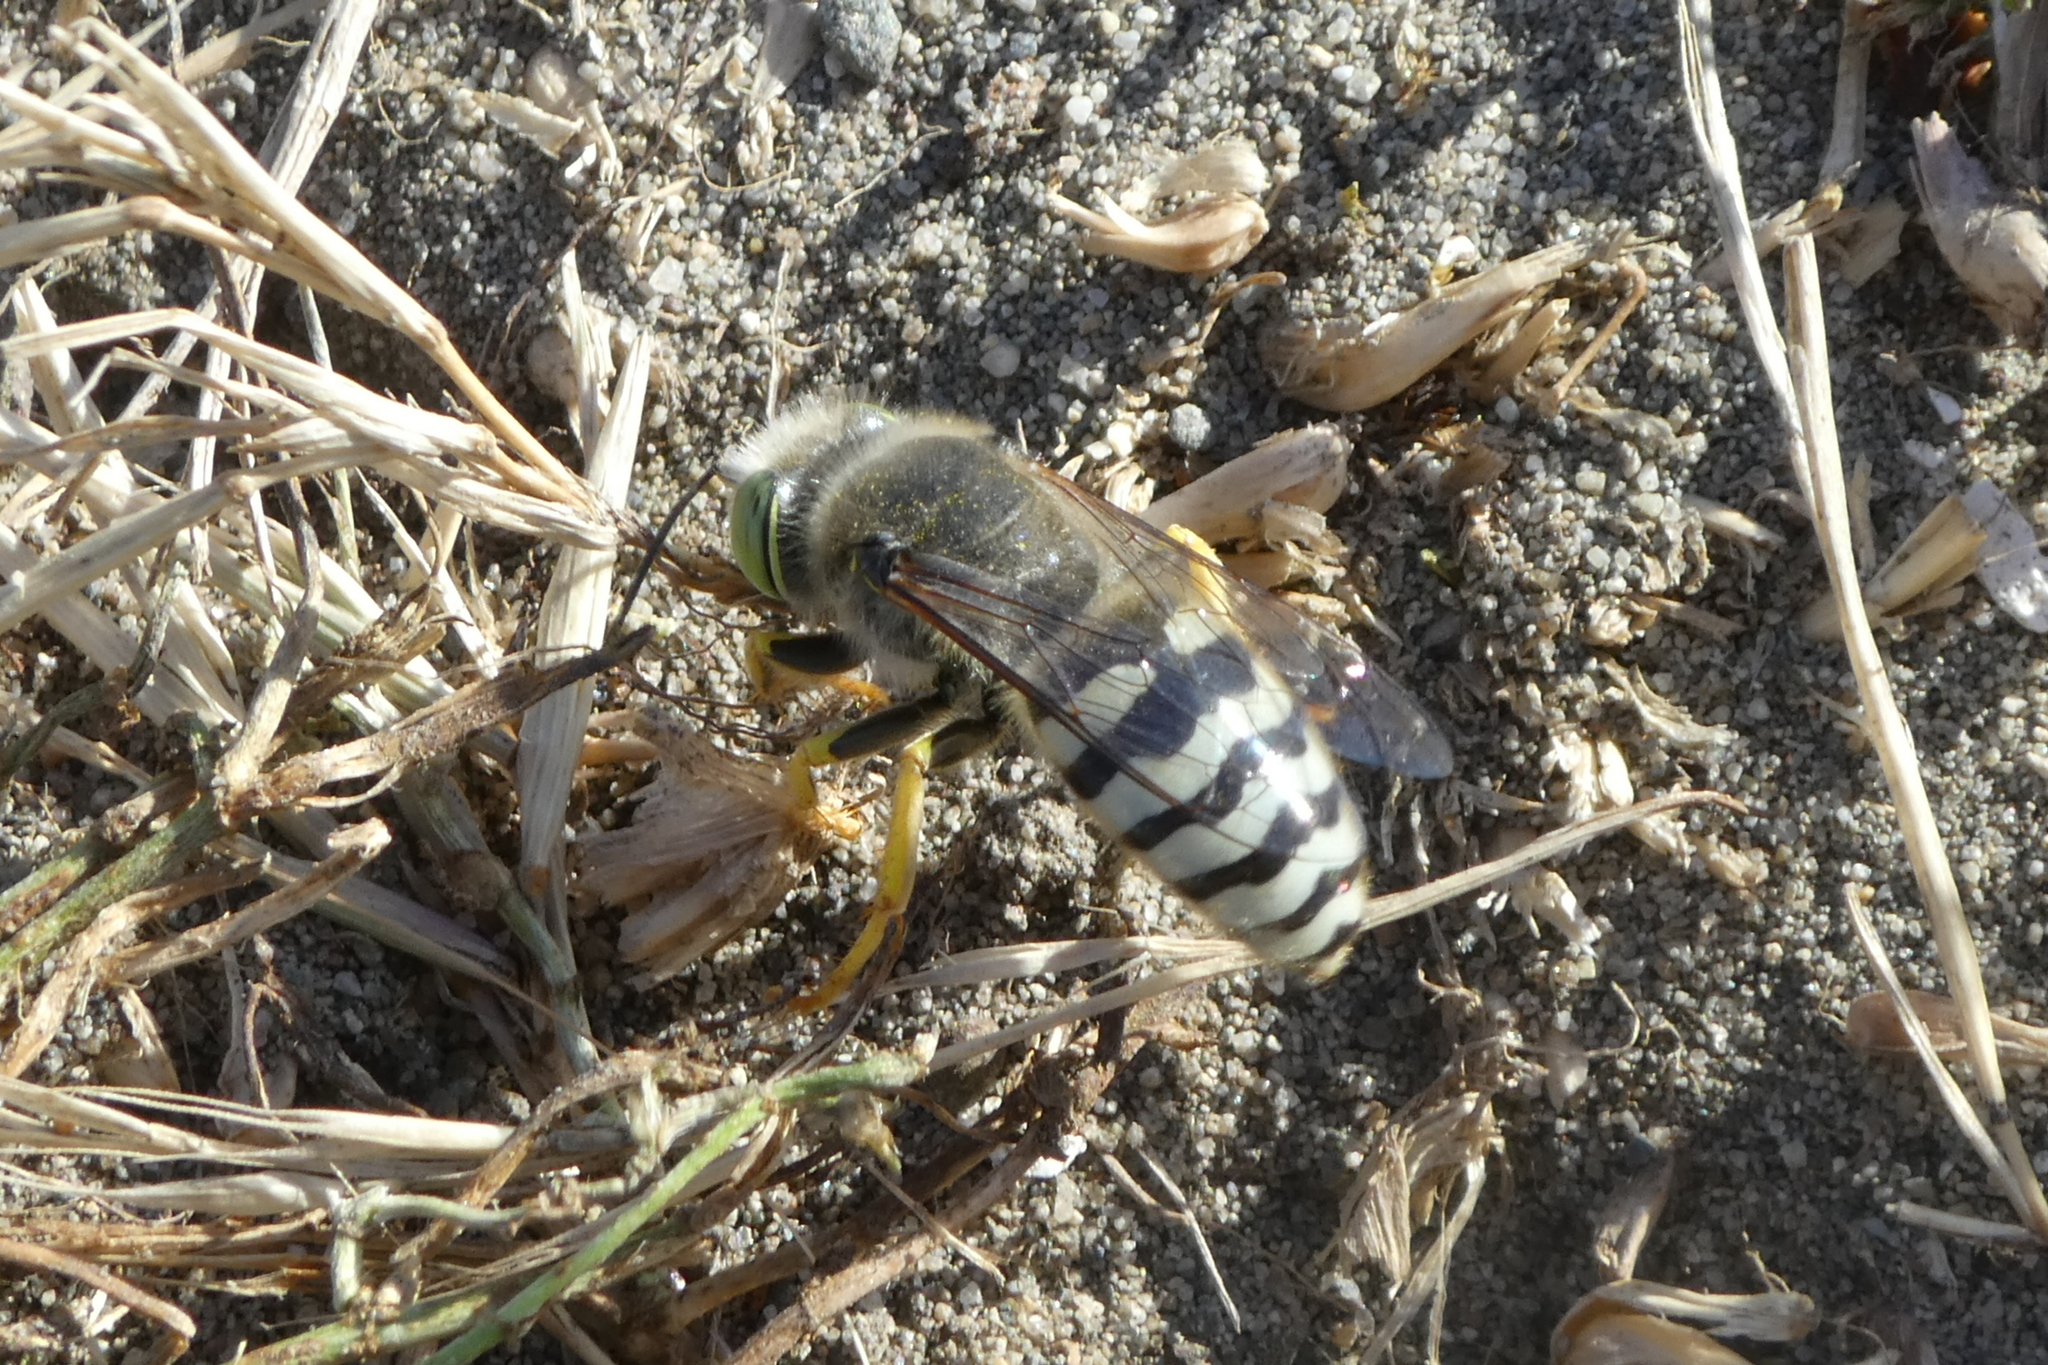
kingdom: Animalia
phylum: Arthropoda
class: Insecta
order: Hymenoptera
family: Crabronidae
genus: Bembix
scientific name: Bembix americana
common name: American sand wasp
